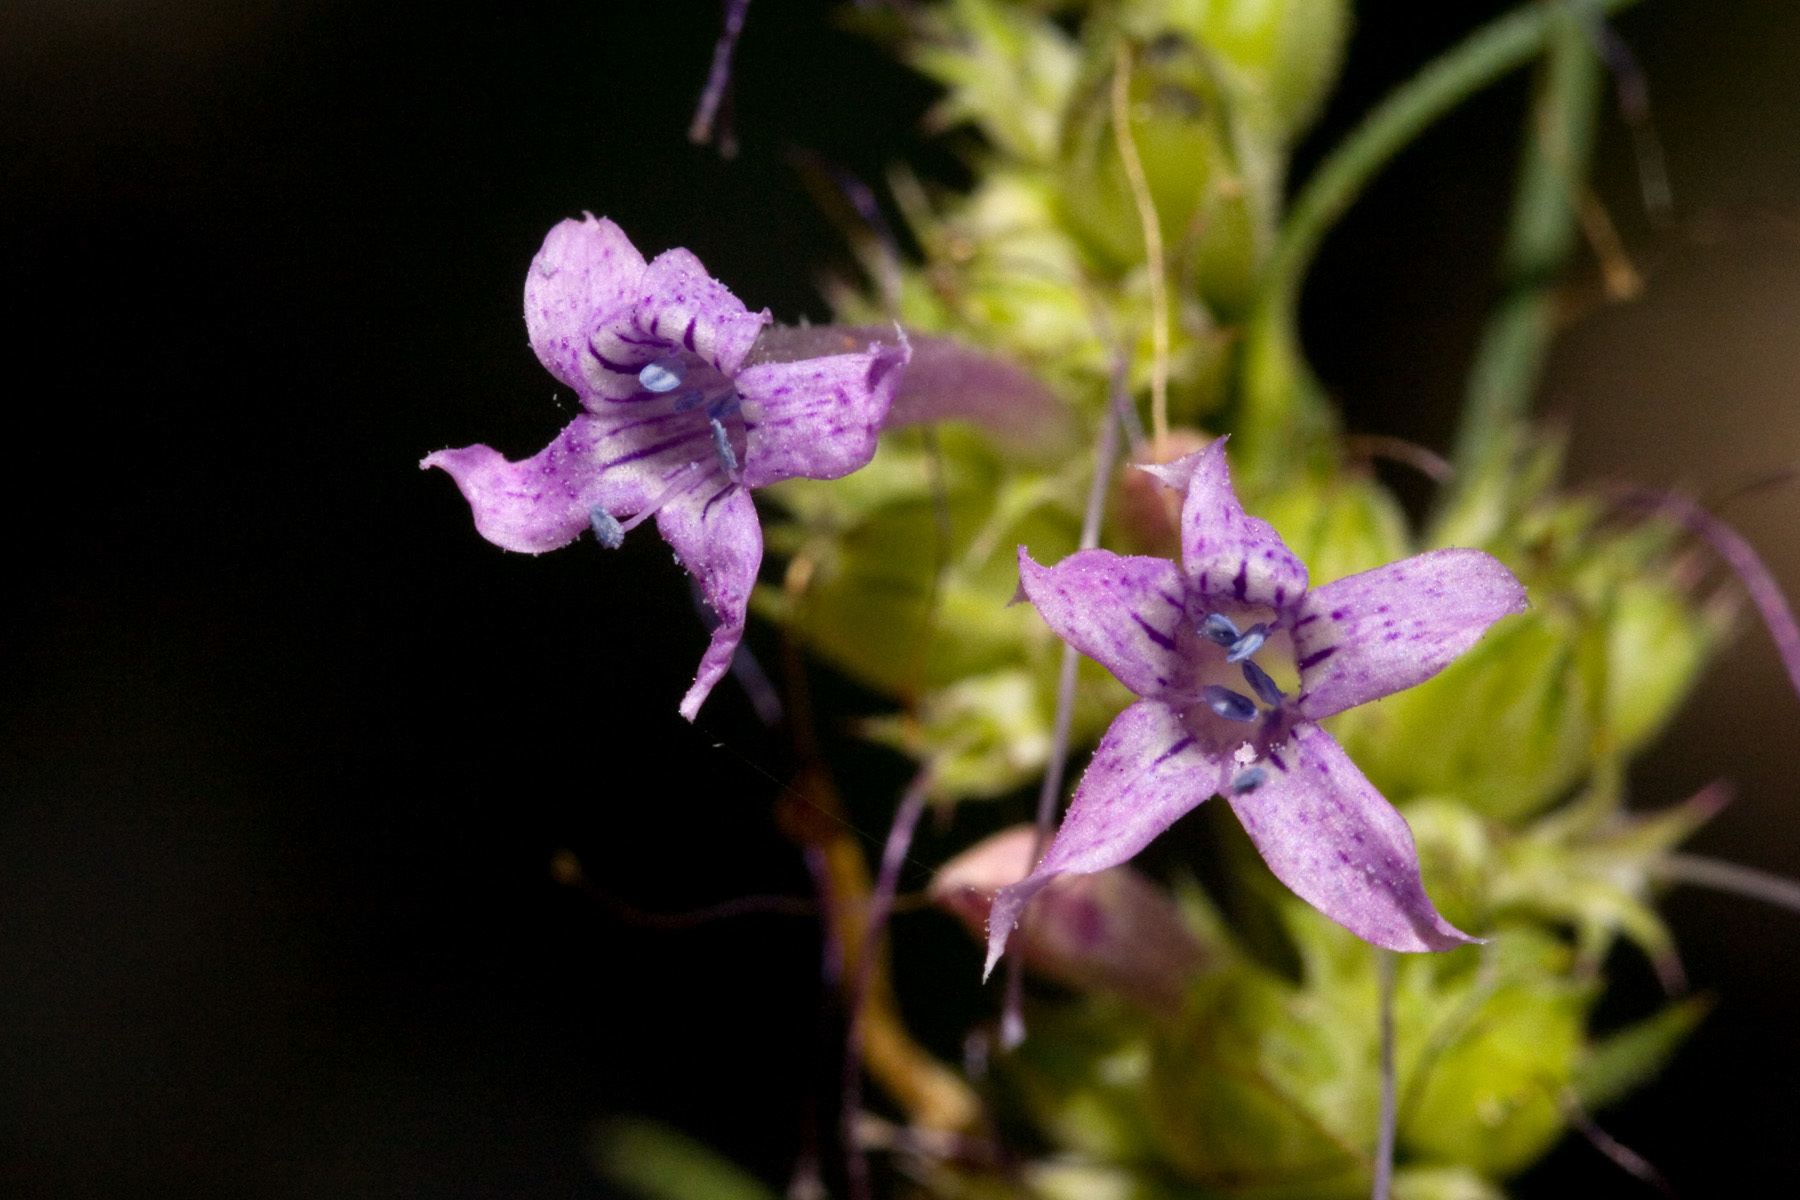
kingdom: Plantae
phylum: Tracheophyta
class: Magnoliopsida
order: Ericales
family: Polemoniaceae
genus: Ipomopsis
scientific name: Ipomopsis macombii
